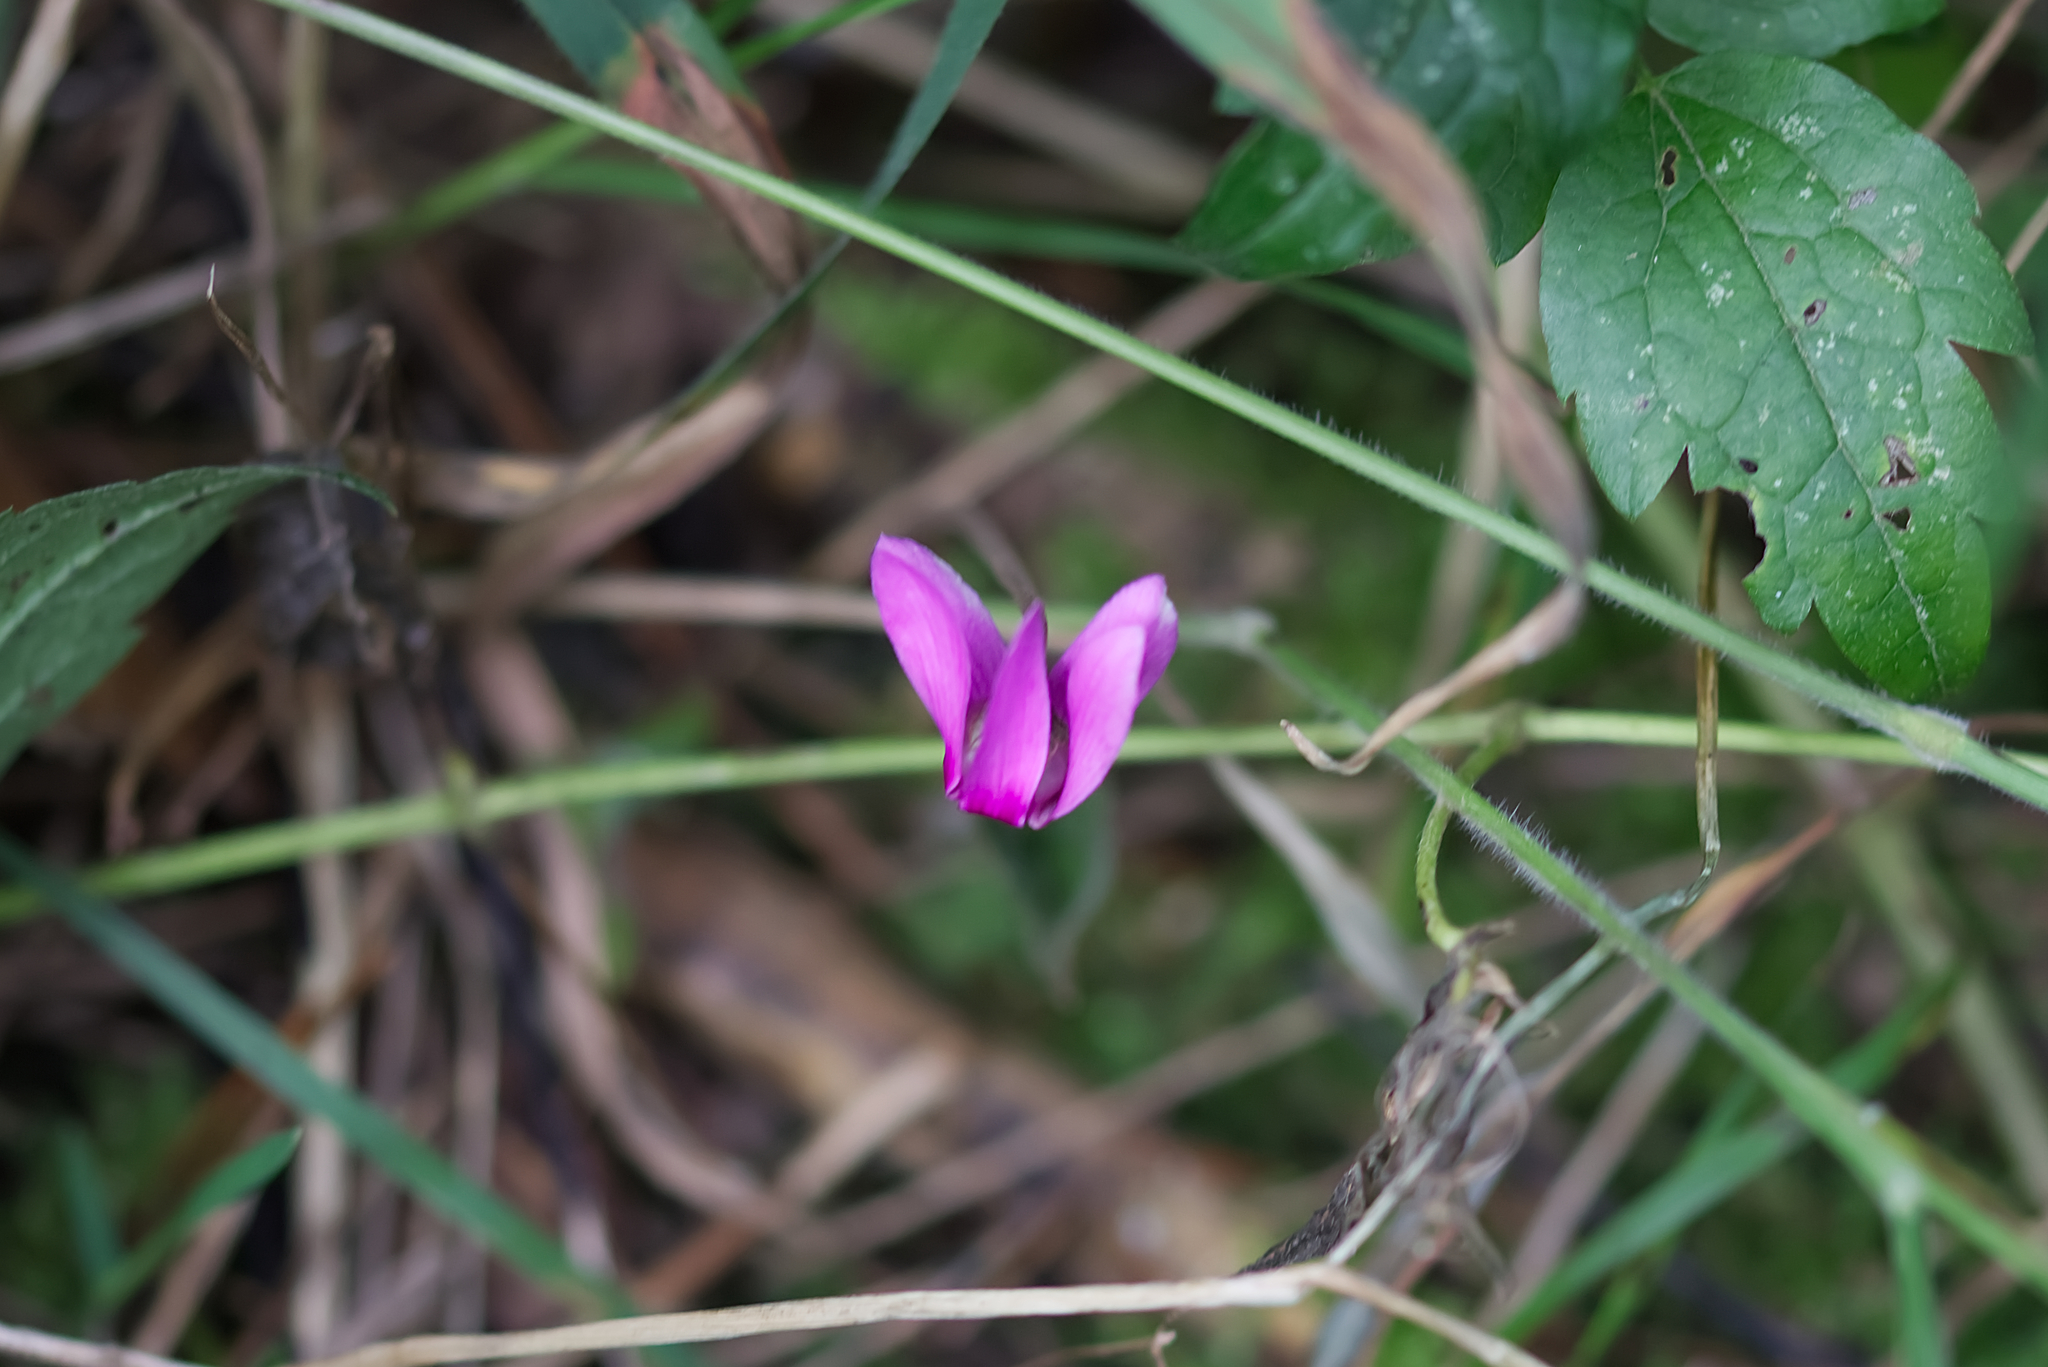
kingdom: Plantae
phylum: Tracheophyta
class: Magnoliopsida
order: Ericales
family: Primulaceae
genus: Cyclamen
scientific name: Cyclamen purpurascens
